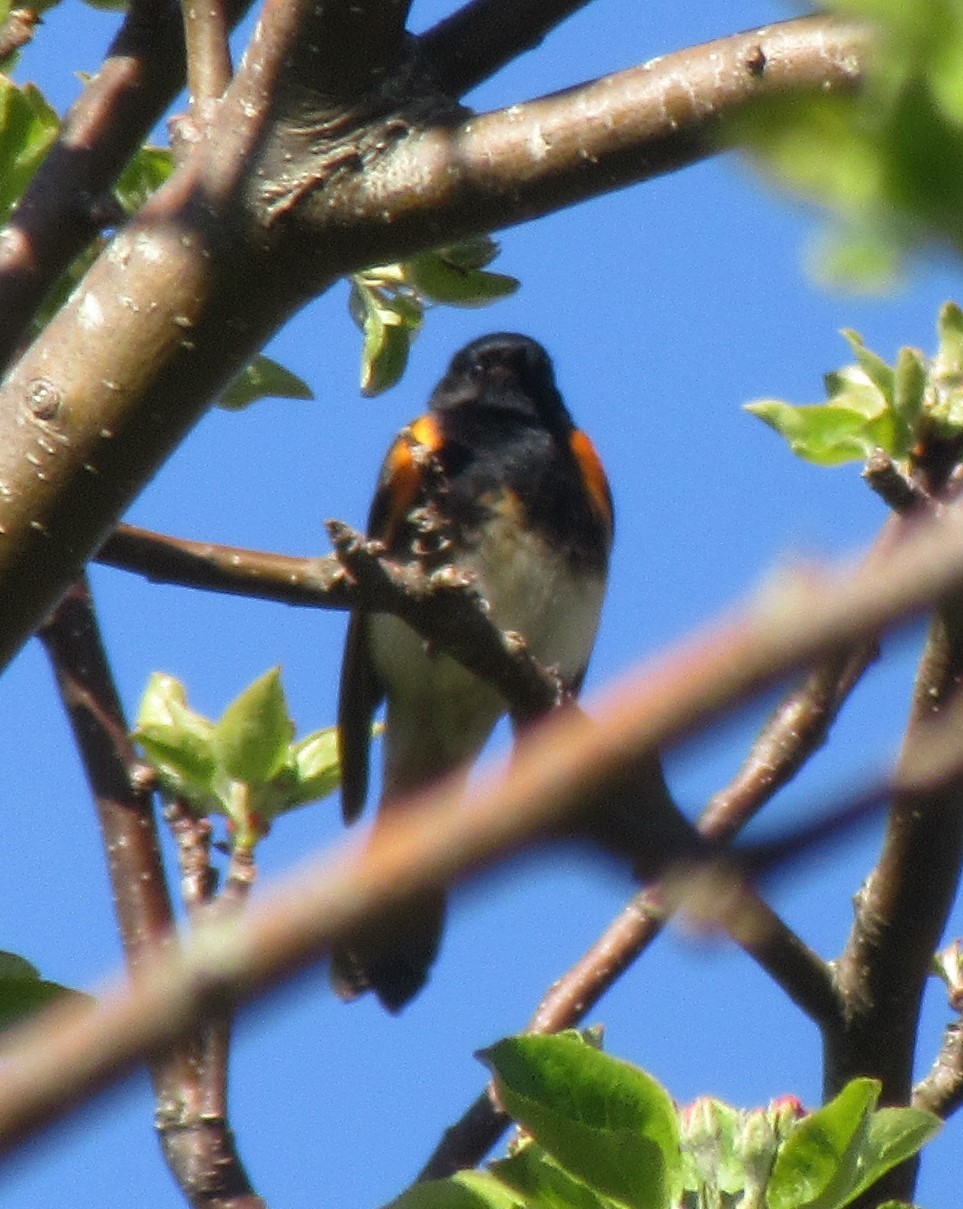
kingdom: Animalia
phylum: Chordata
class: Aves
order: Passeriformes
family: Parulidae
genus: Setophaga
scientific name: Setophaga ruticilla
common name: American redstart
